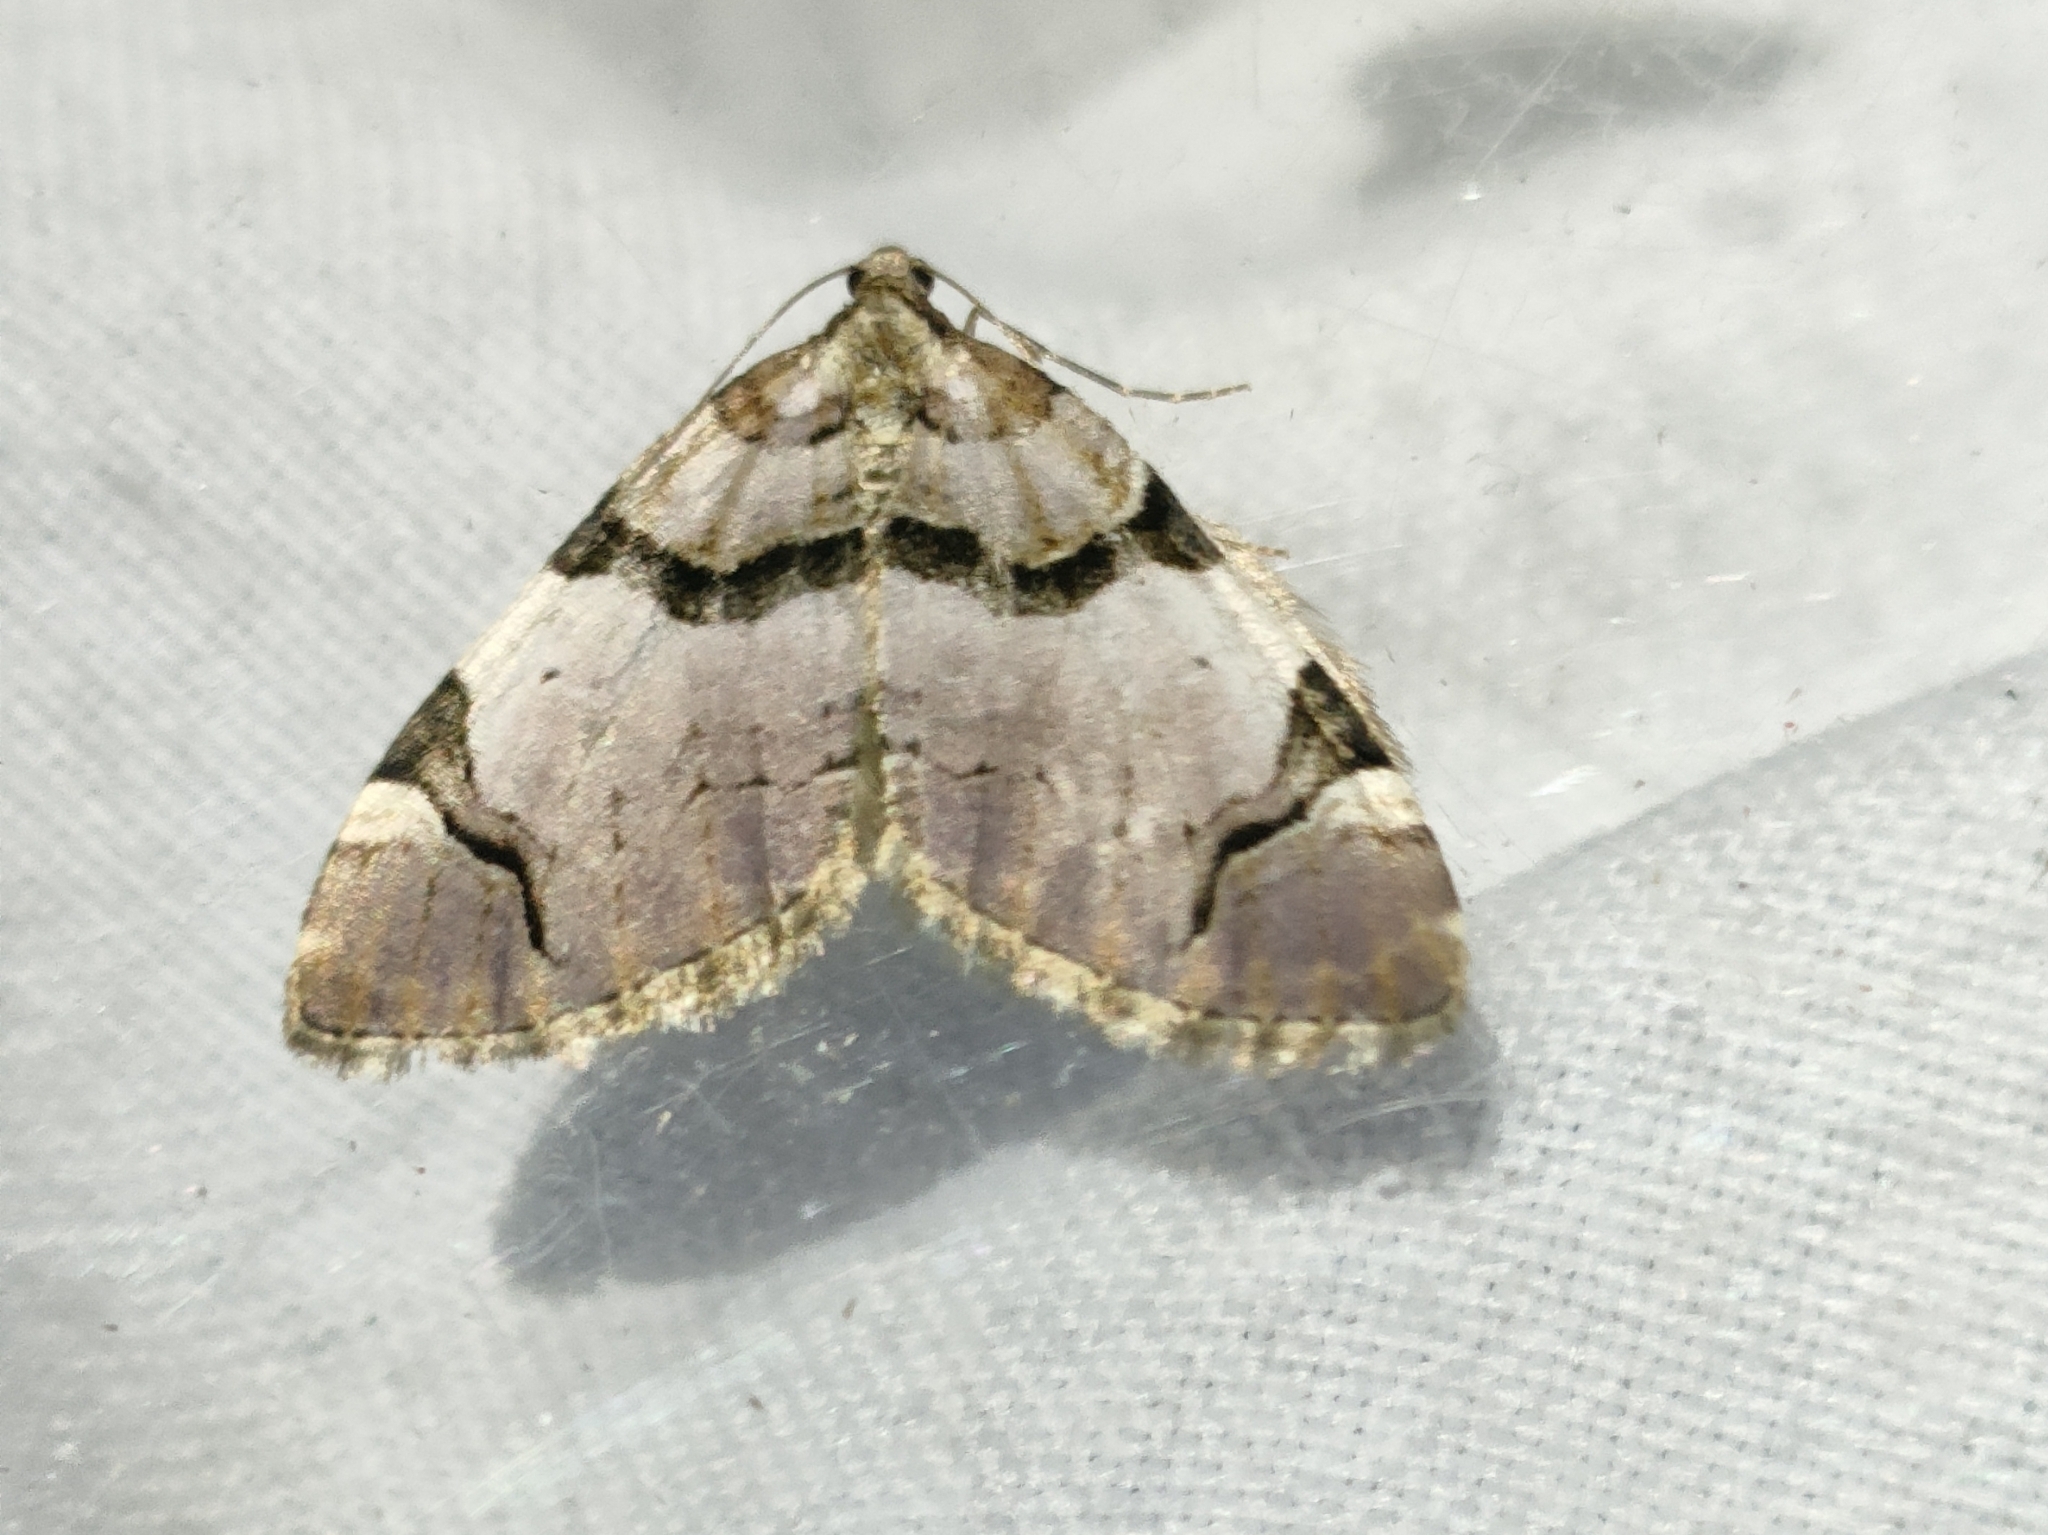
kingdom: Animalia
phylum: Arthropoda
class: Insecta
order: Lepidoptera
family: Geometridae
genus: Anticlea
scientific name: Anticlea derivata
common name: Streamer
